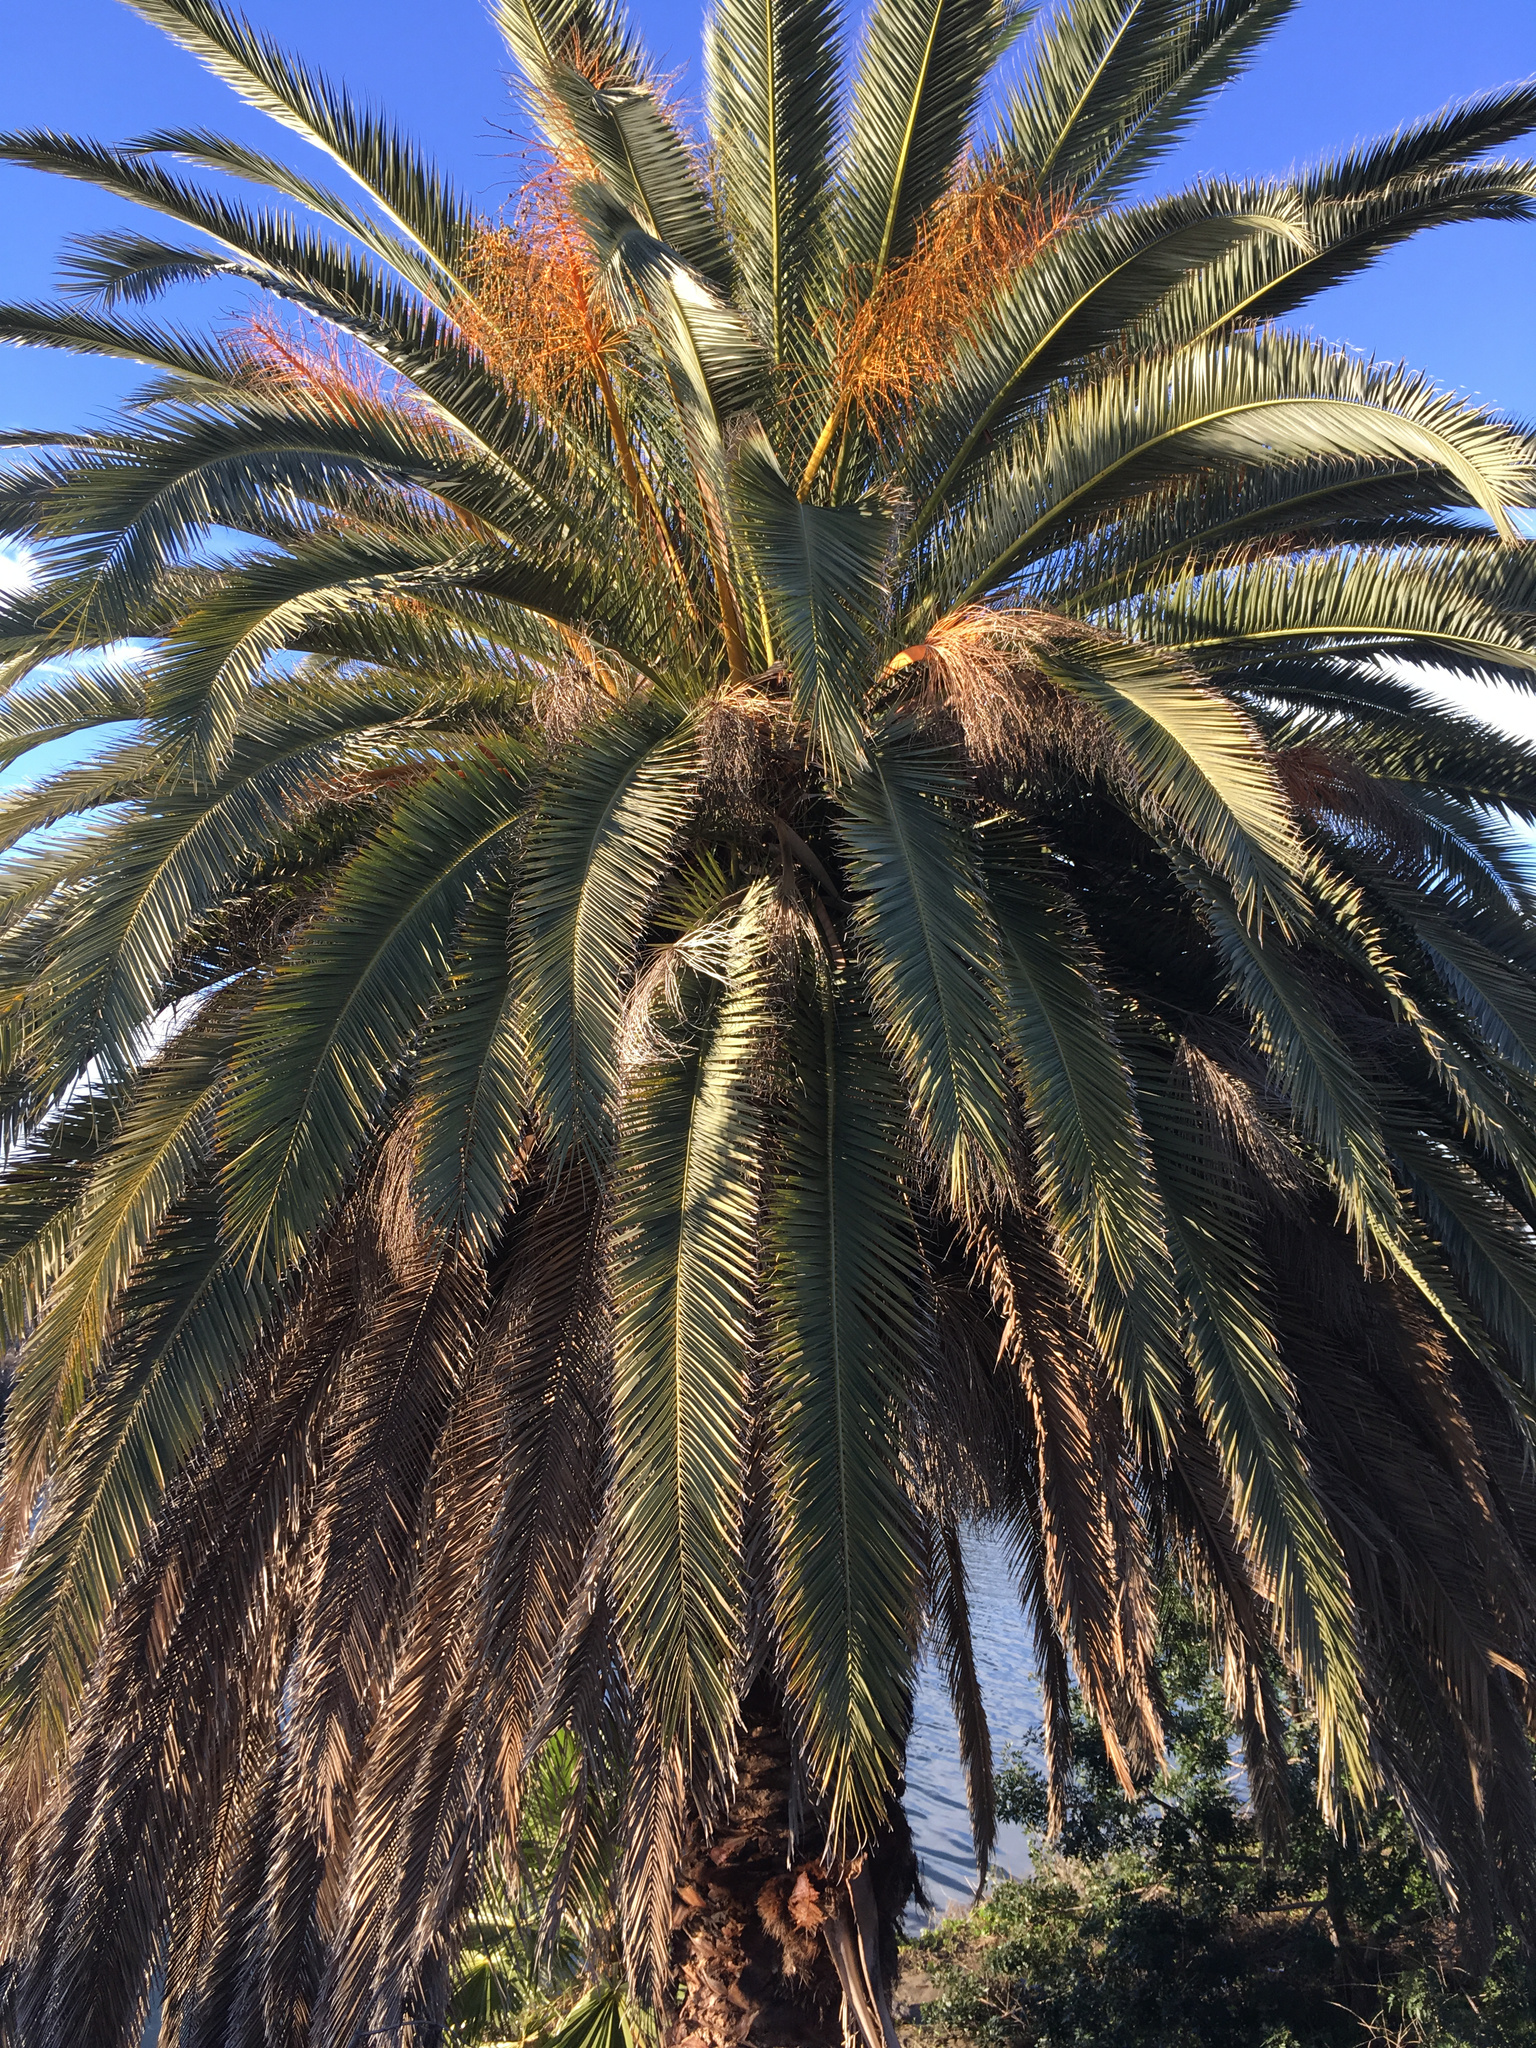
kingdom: Plantae
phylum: Tracheophyta
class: Liliopsida
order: Arecales
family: Arecaceae
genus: Phoenix
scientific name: Phoenix canariensis
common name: Canary island date palm
